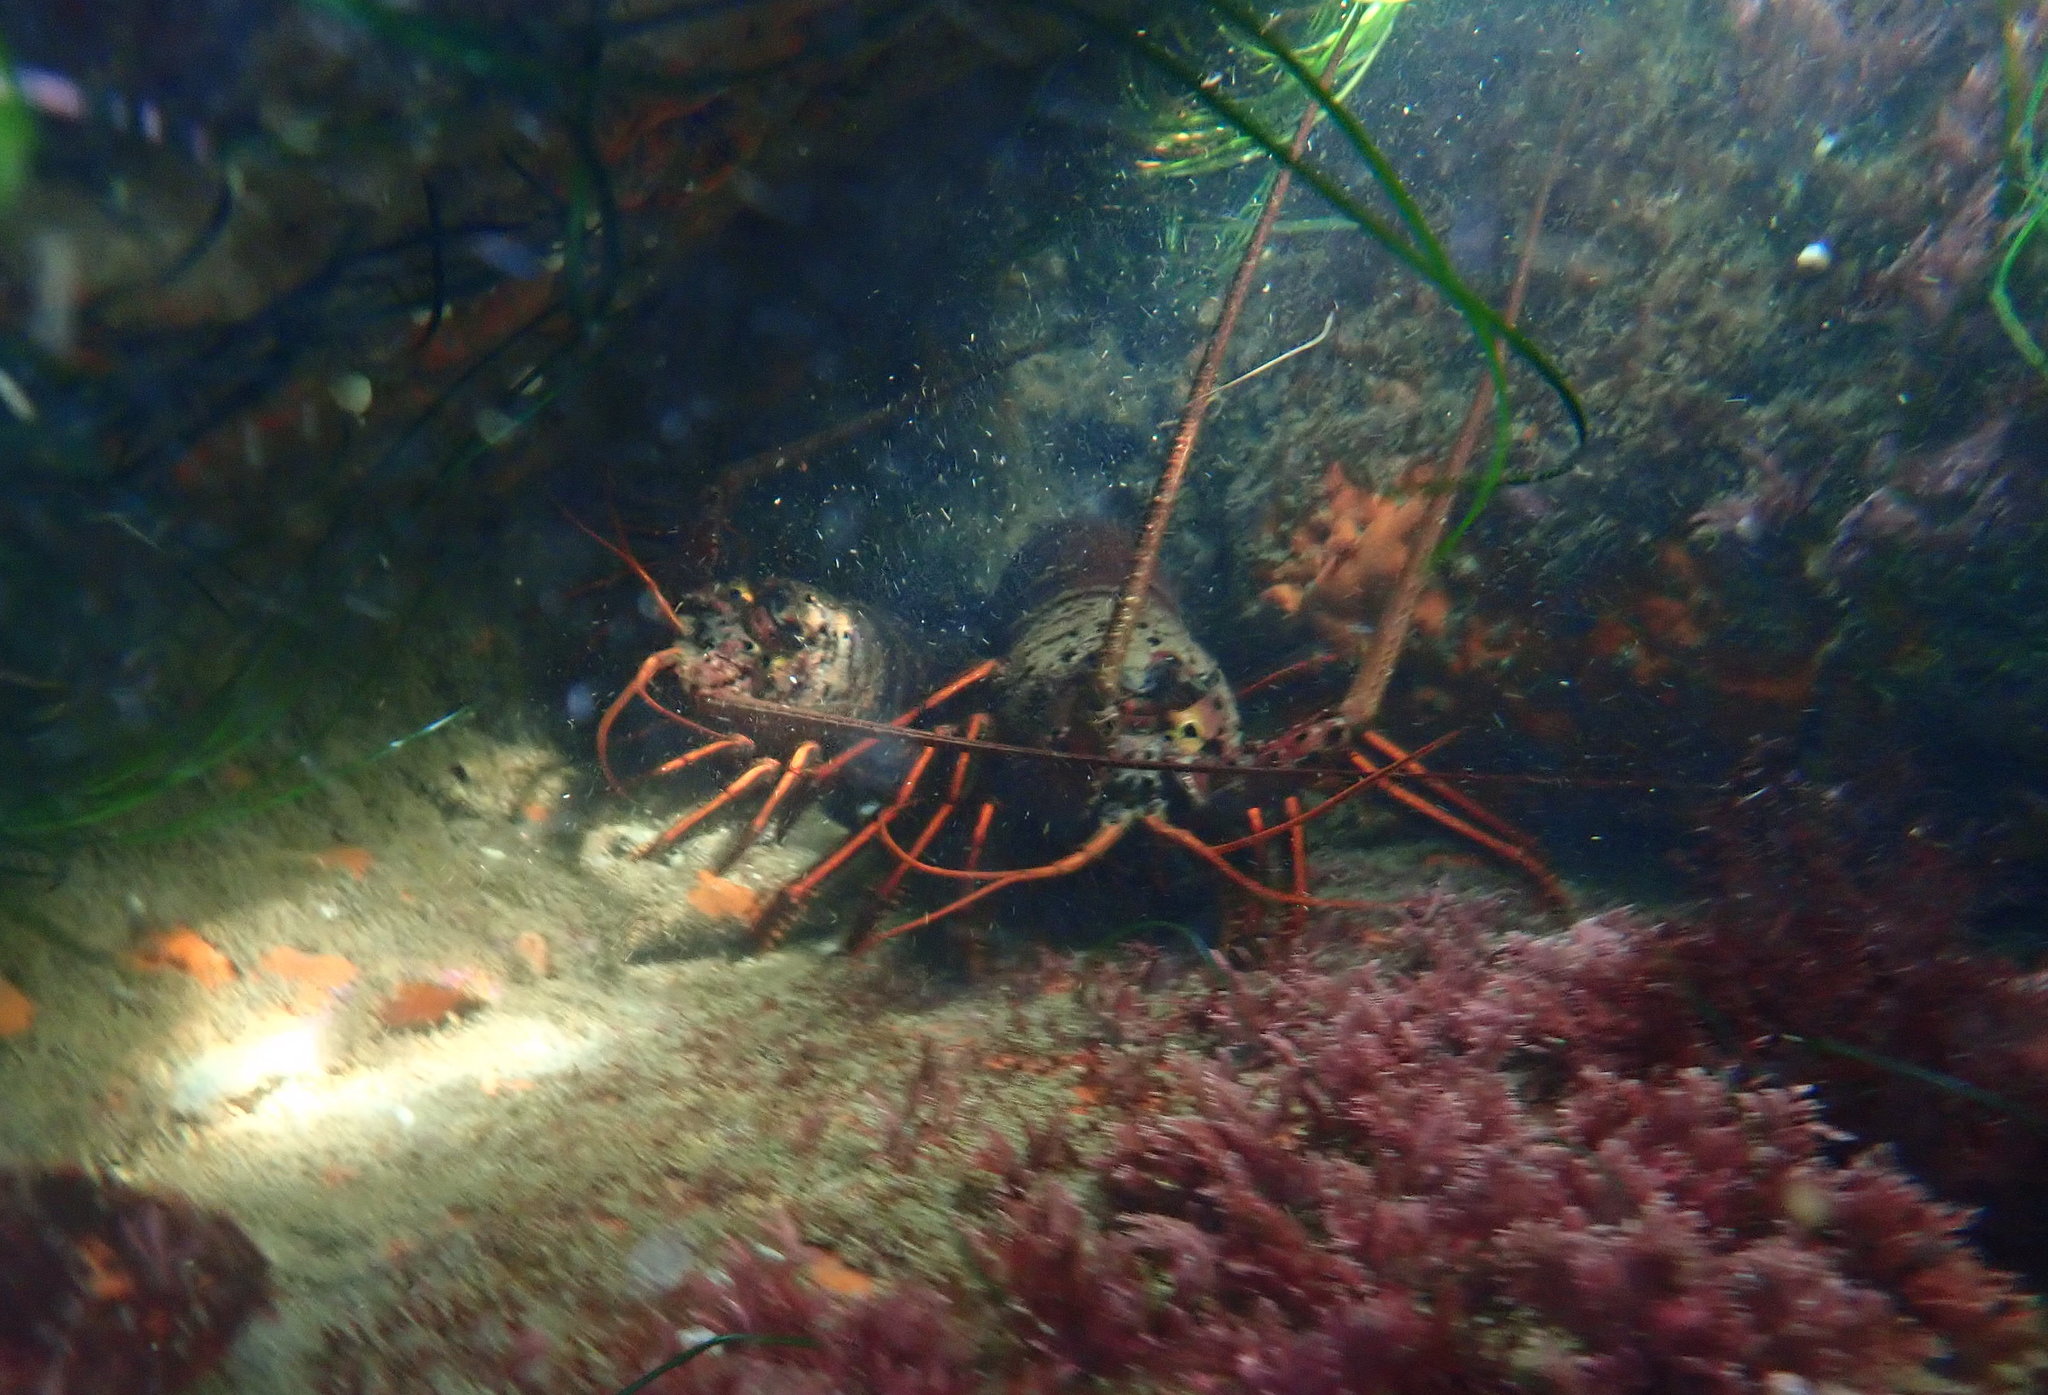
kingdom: Animalia
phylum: Arthropoda
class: Malacostraca
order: Decapoda
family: Palinuridae
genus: Panulirus
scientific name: Panulirus interruptus
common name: California spiny lobster
